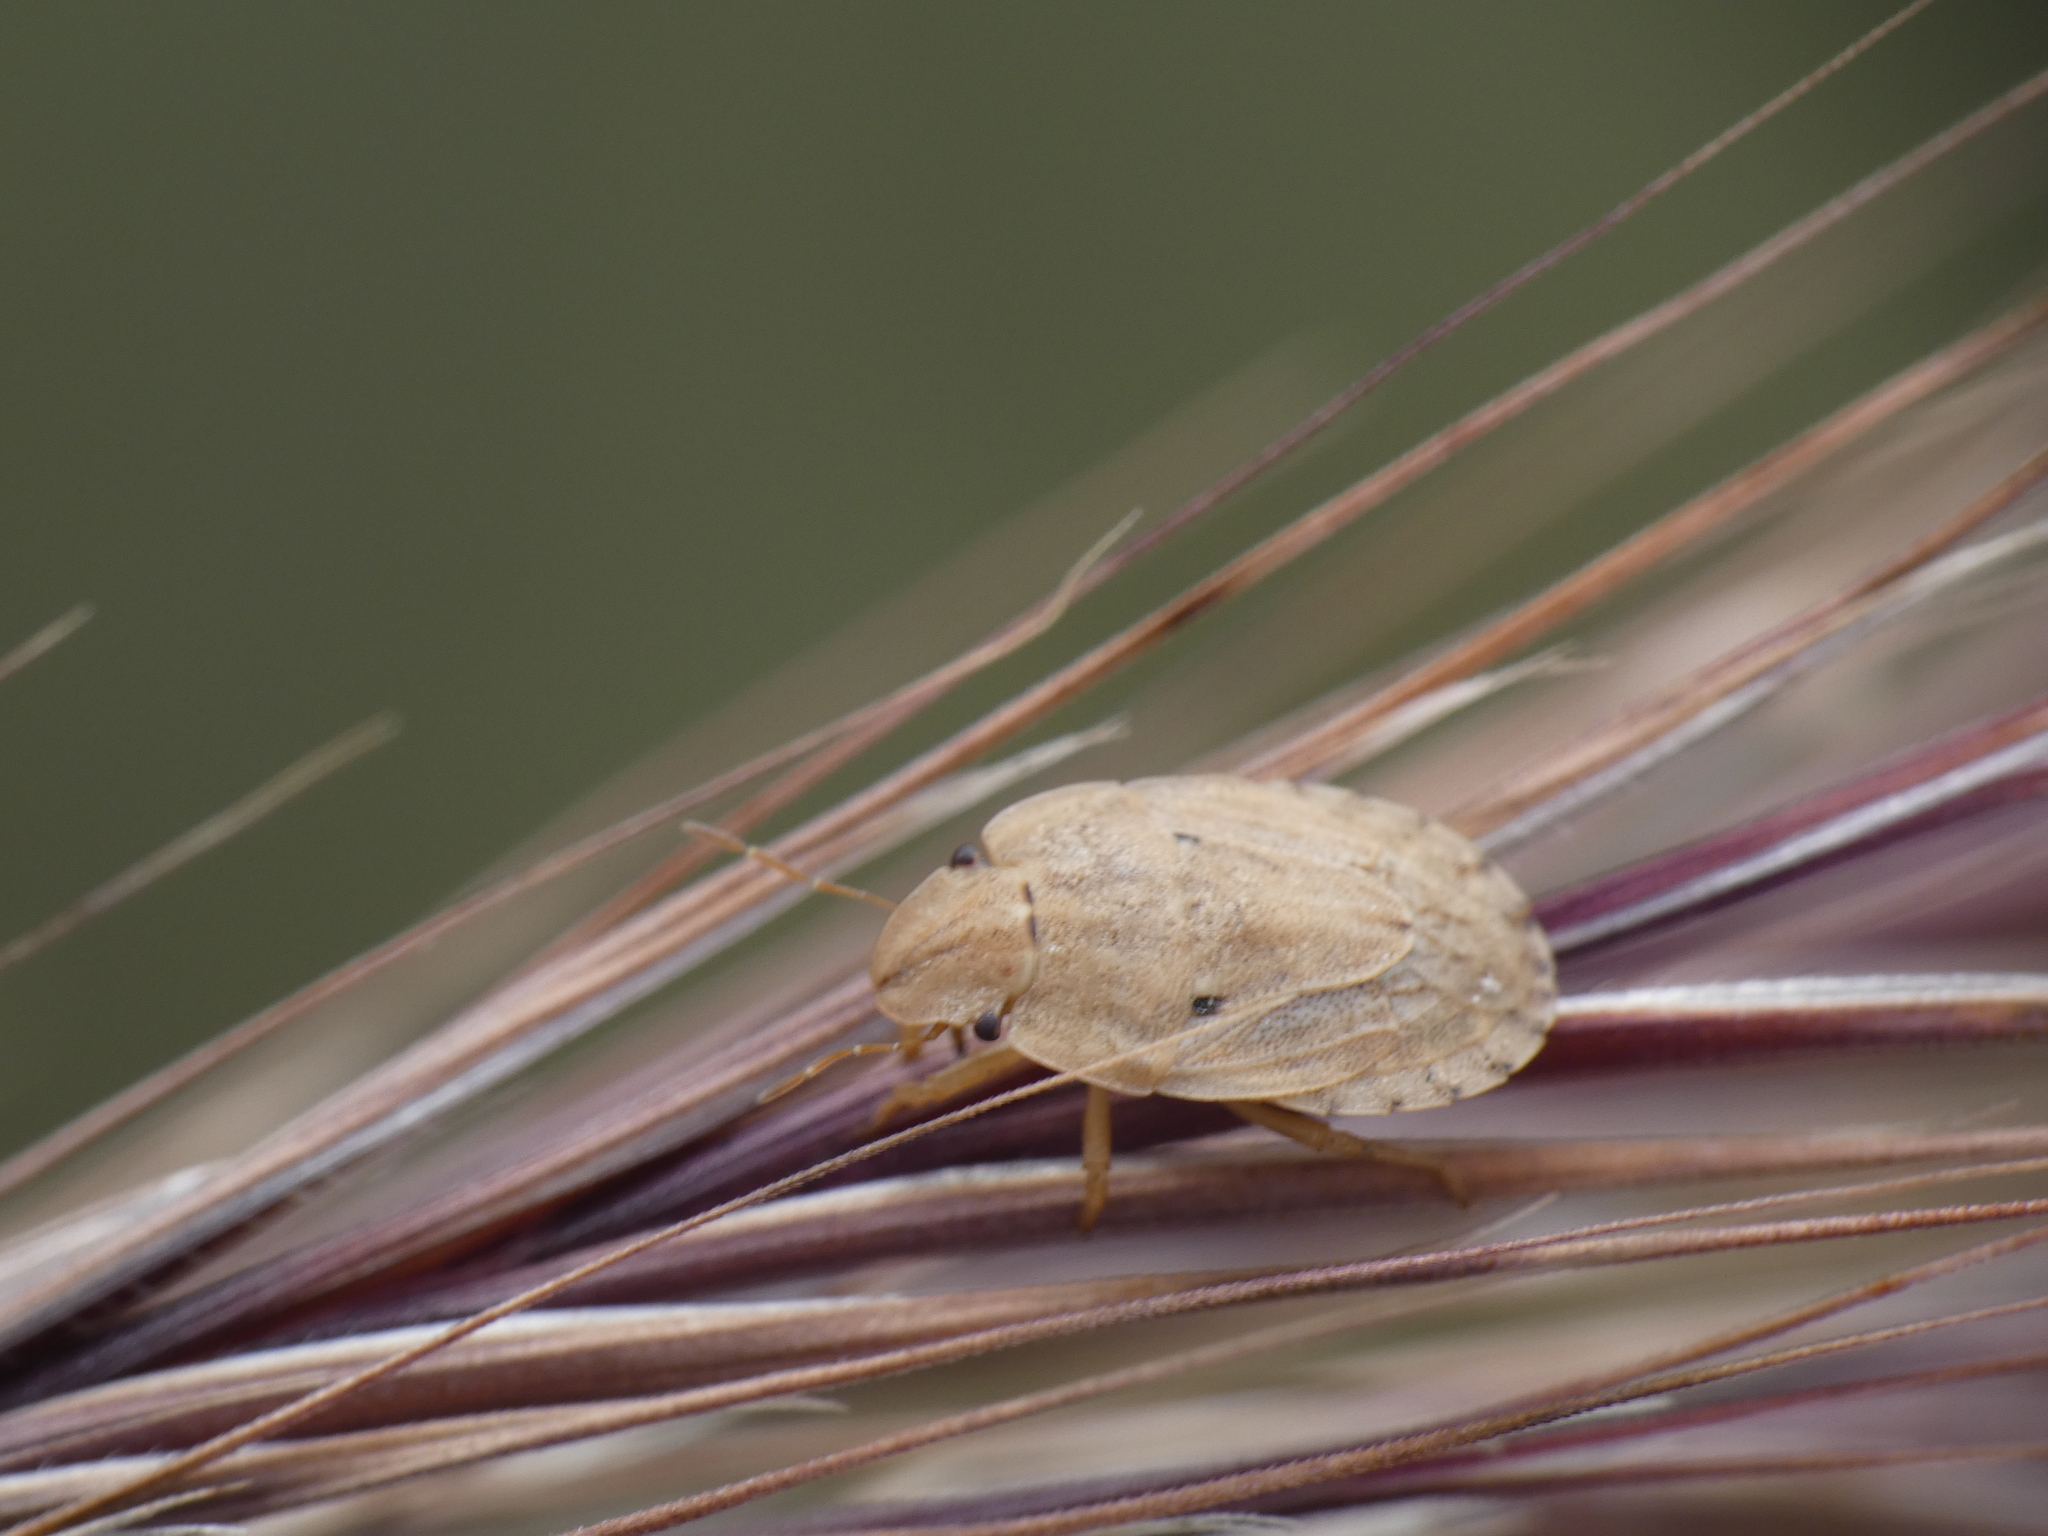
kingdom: Animalia
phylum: Arthropoda
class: Insecta
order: Hemiptera
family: Pentatomidae
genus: Sciocoris
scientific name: Sciocoris sulcatus
